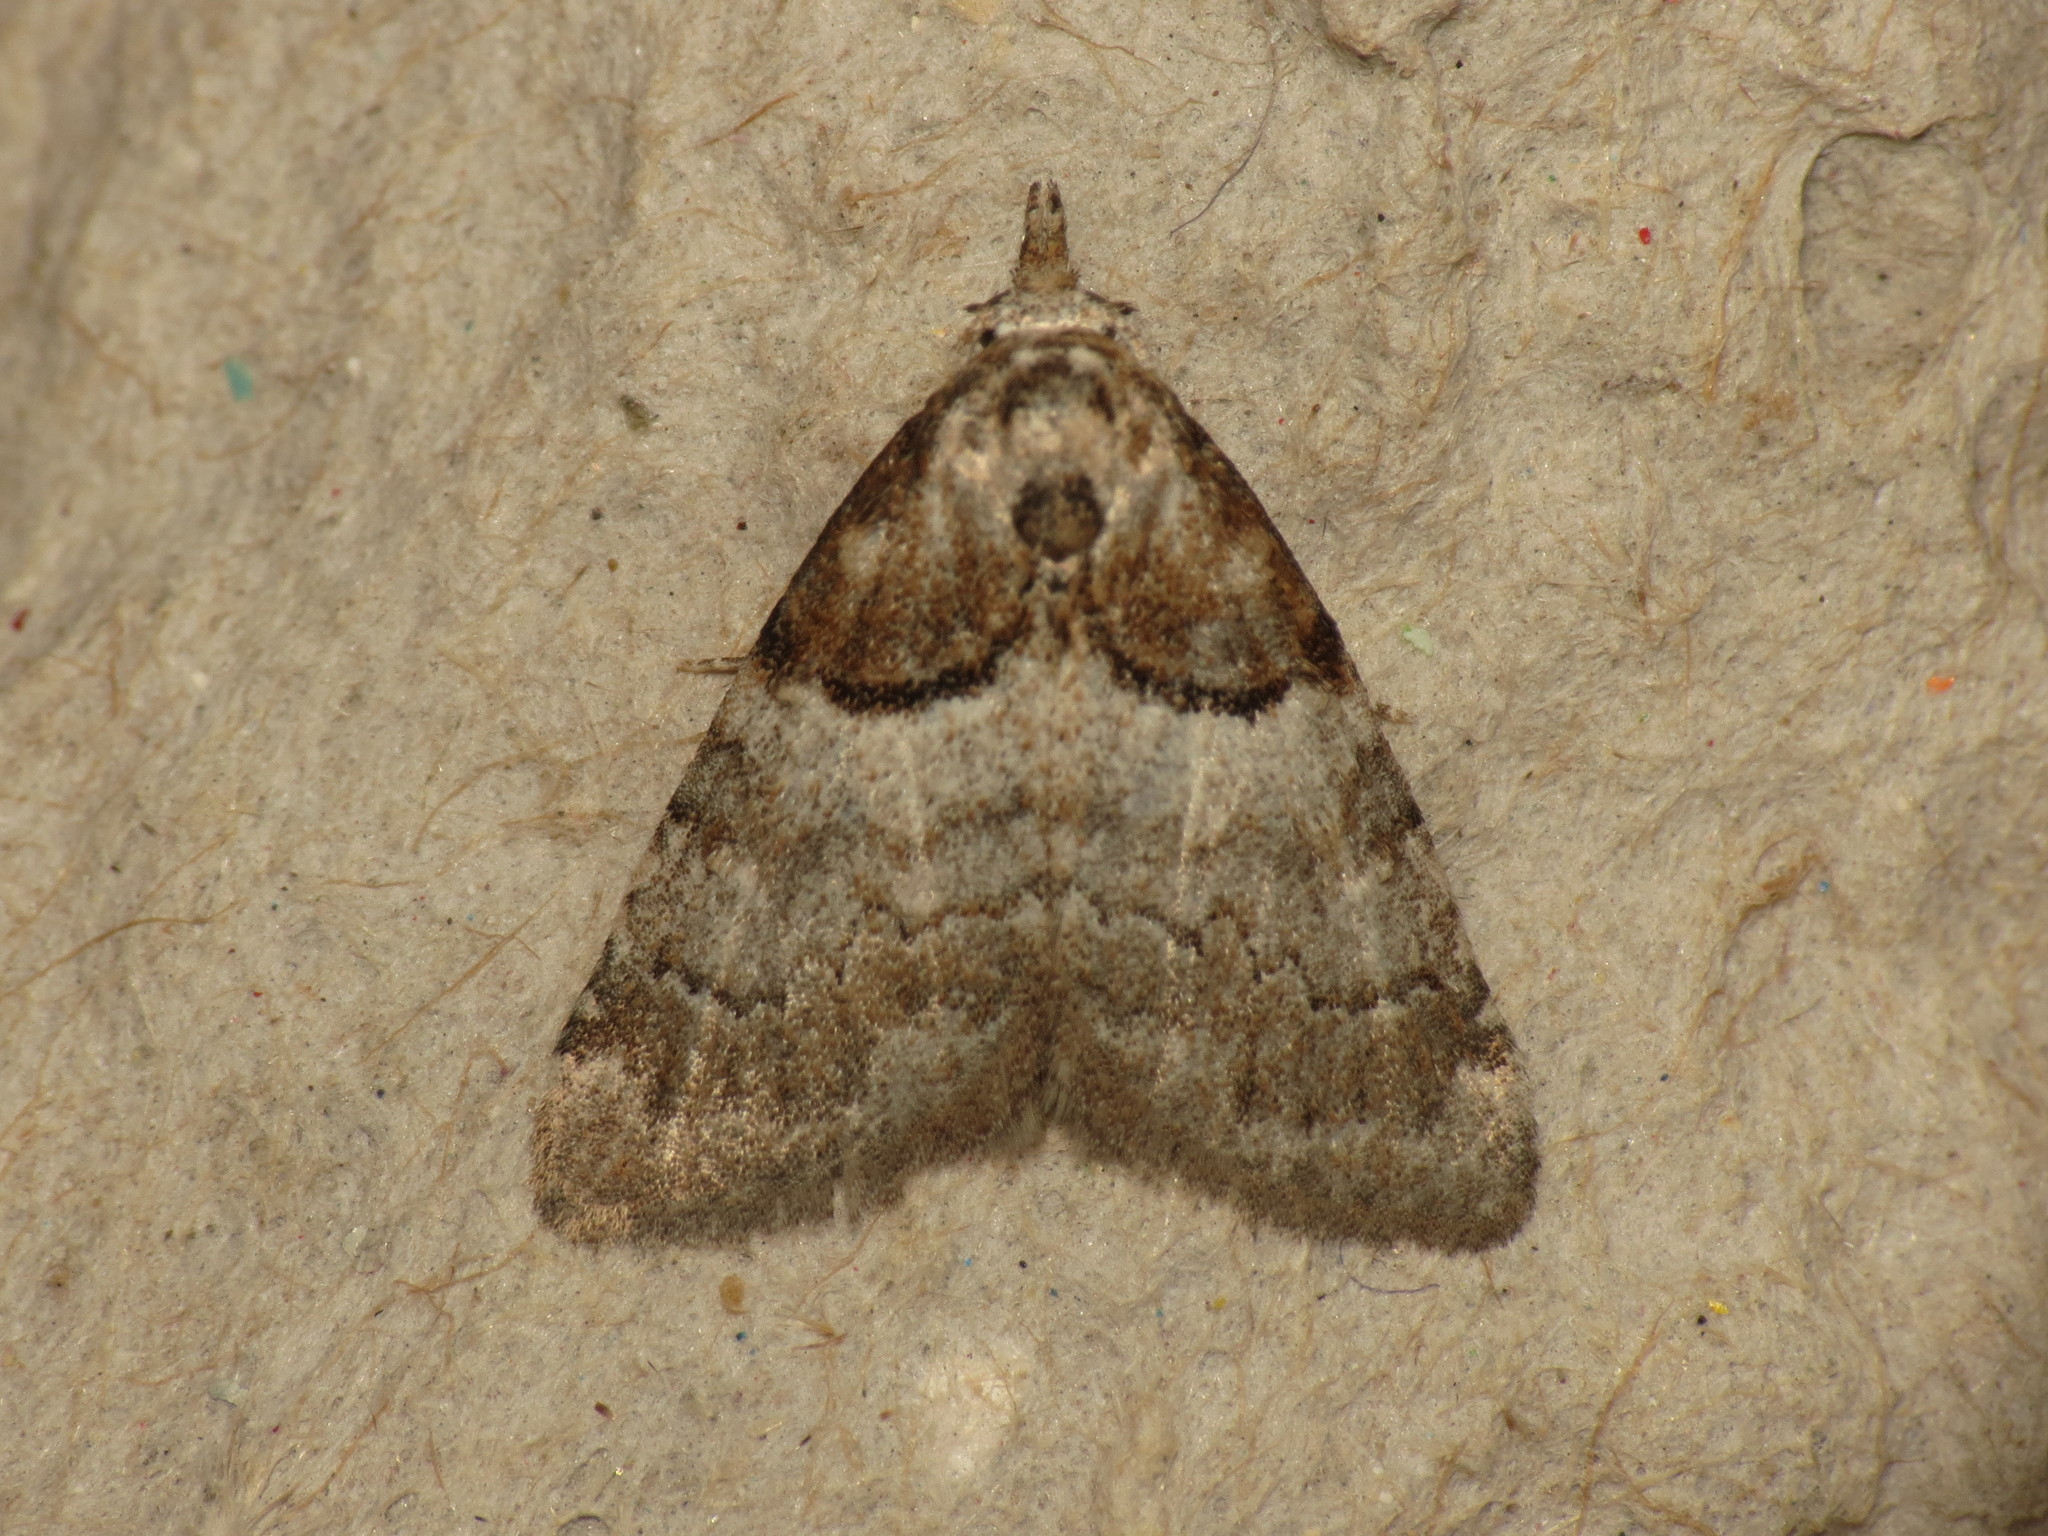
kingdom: Animalia
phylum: Arthropoda
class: Insecta
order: Lepidoptera
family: Nolidae
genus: Nola
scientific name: Nola cucullatella
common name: Short-cloaked moth
